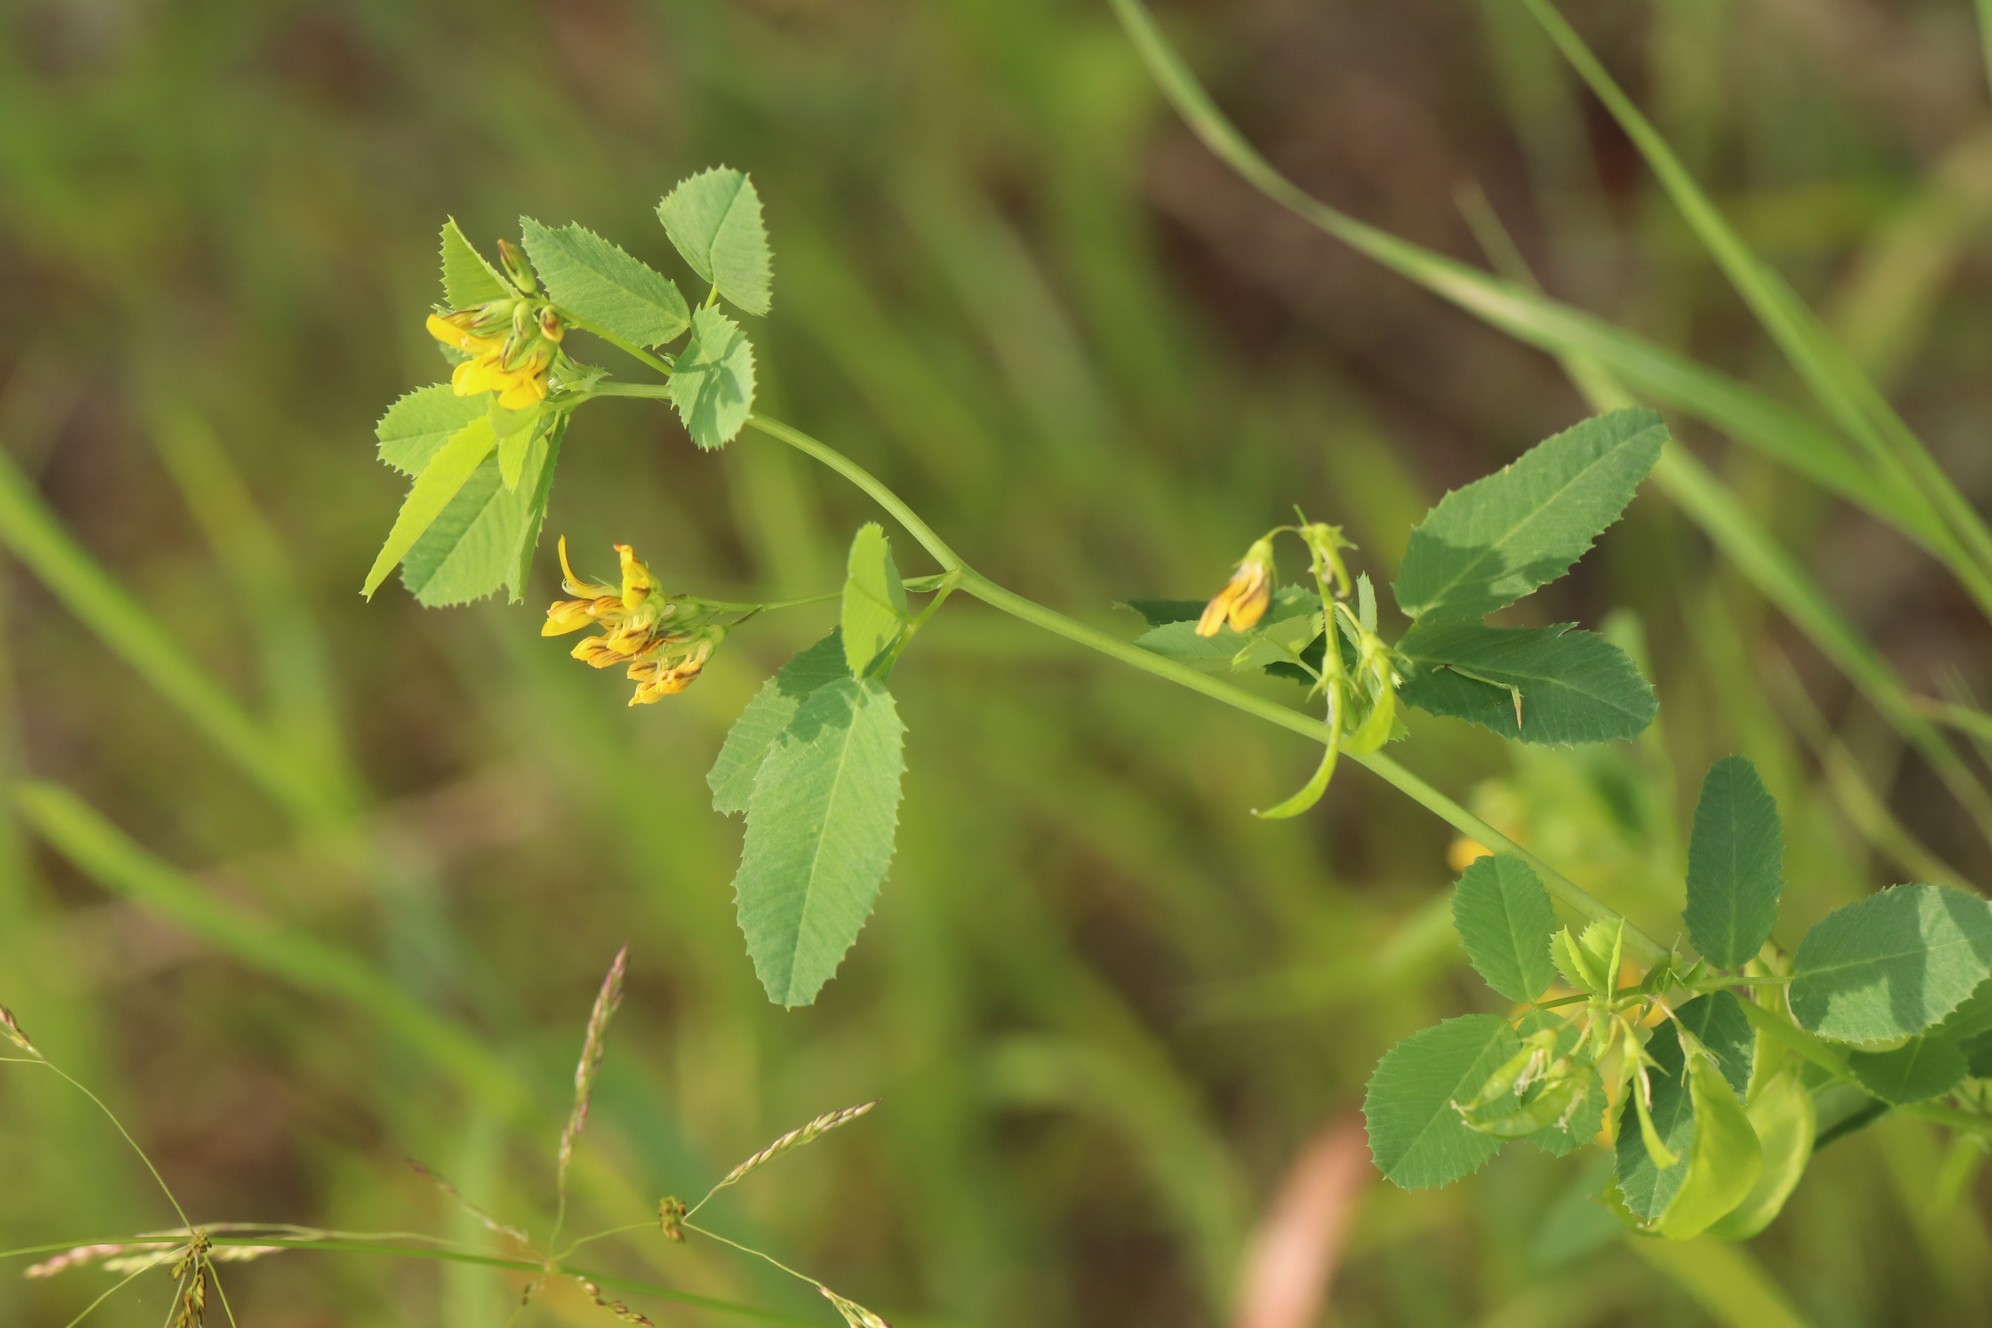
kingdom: Plantae
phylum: Tracheophyta
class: Magnoliopsida
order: Fabales
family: Fabaceae
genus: Medicago
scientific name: Medicago platycarpos
